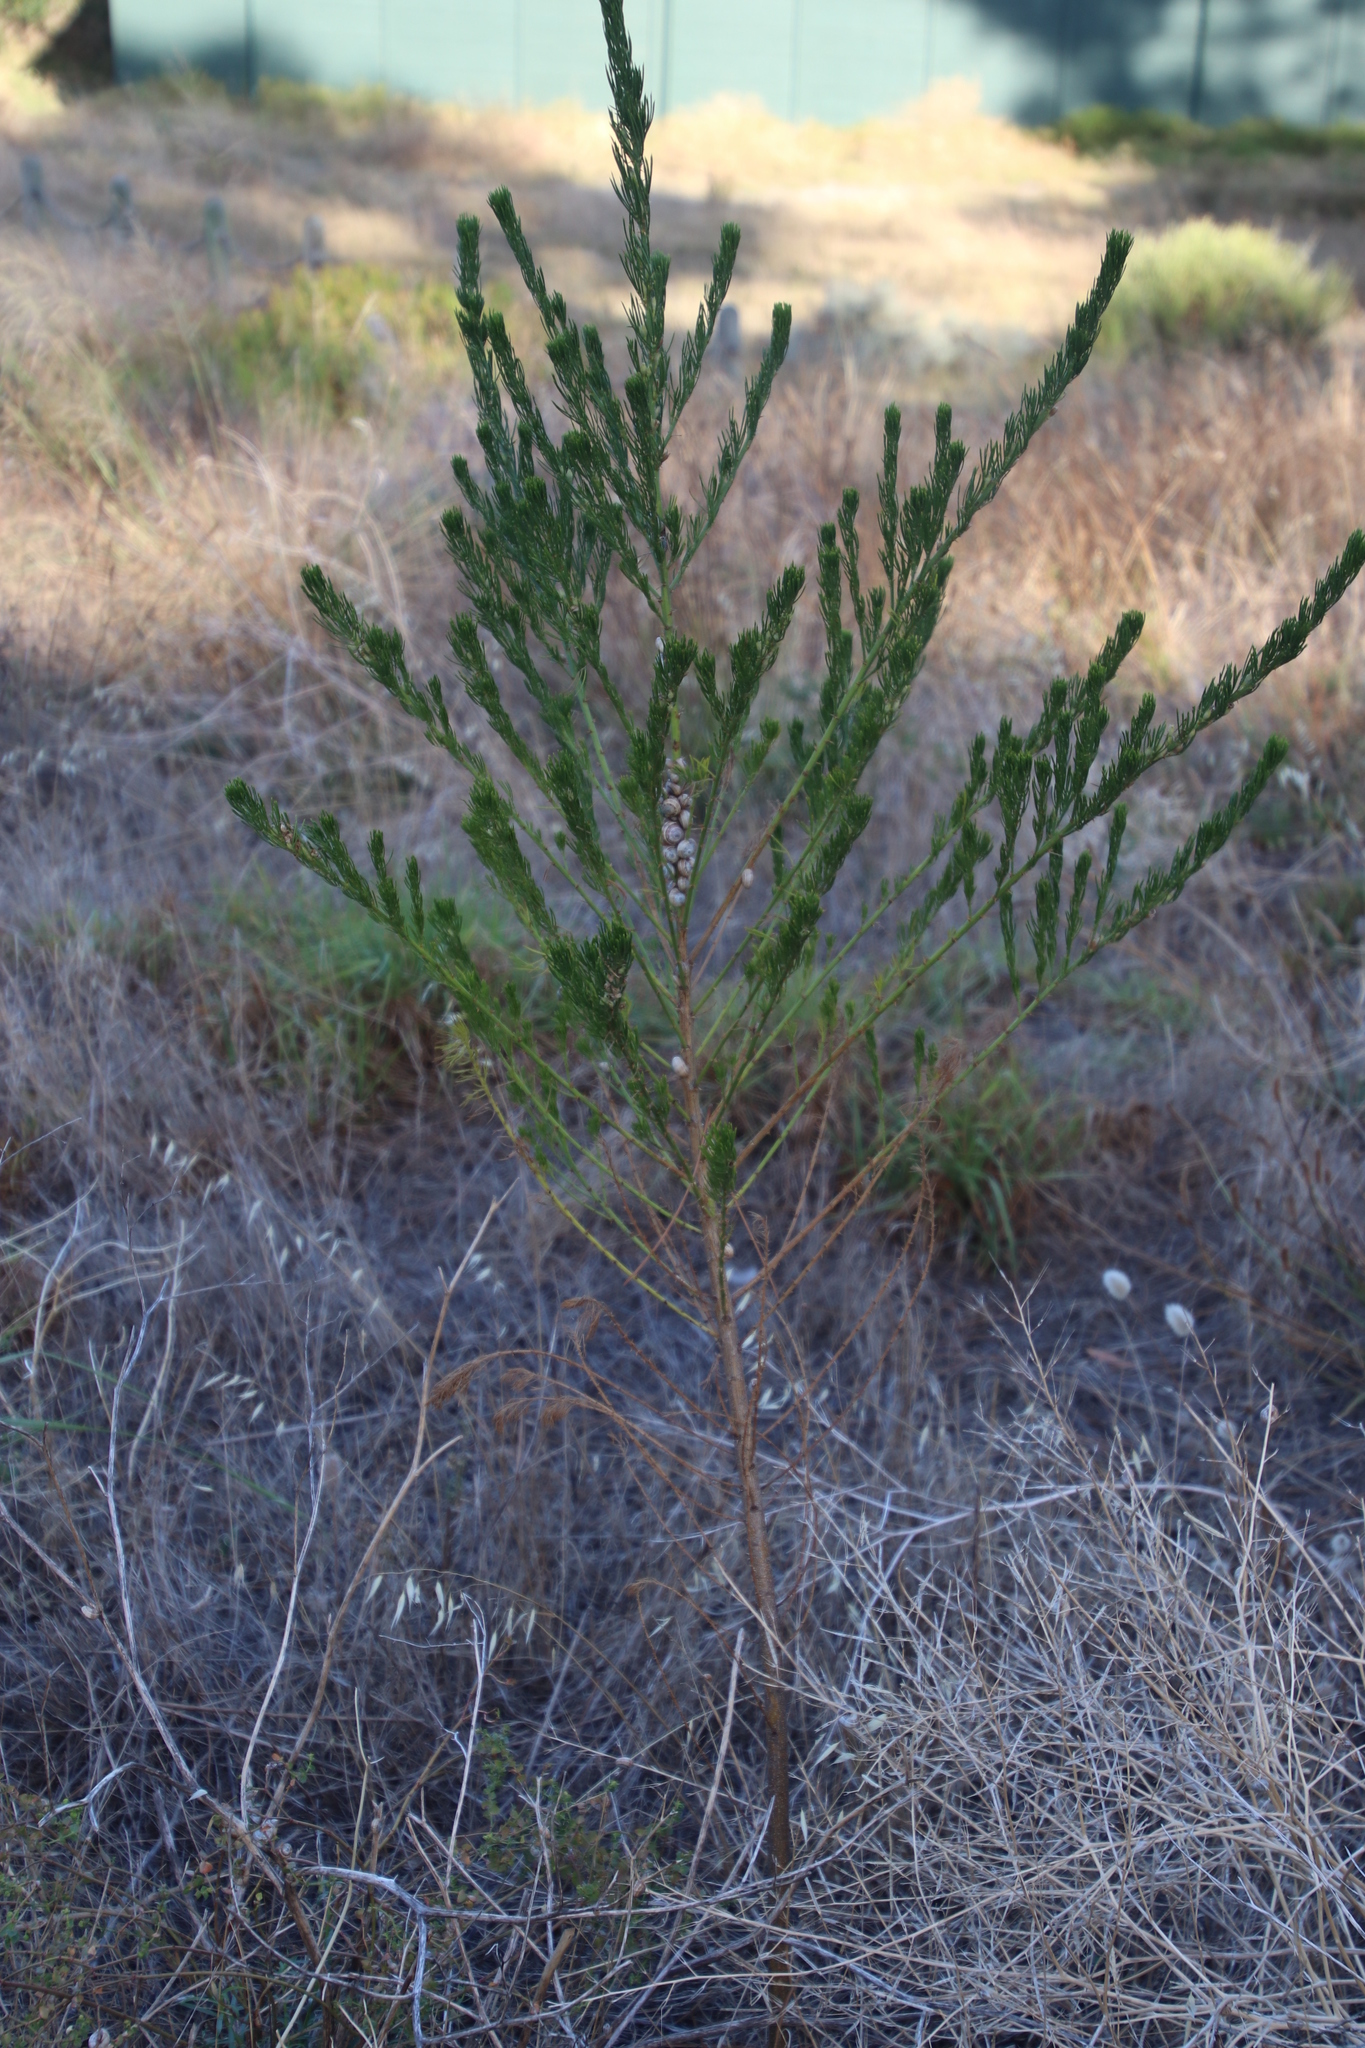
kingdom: Plantae
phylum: Tracheophyta
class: Magnoliopsida
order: Fabales
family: Fabaceae
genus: Psoralea
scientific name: Psoralea pinnata
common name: African scurfpea
